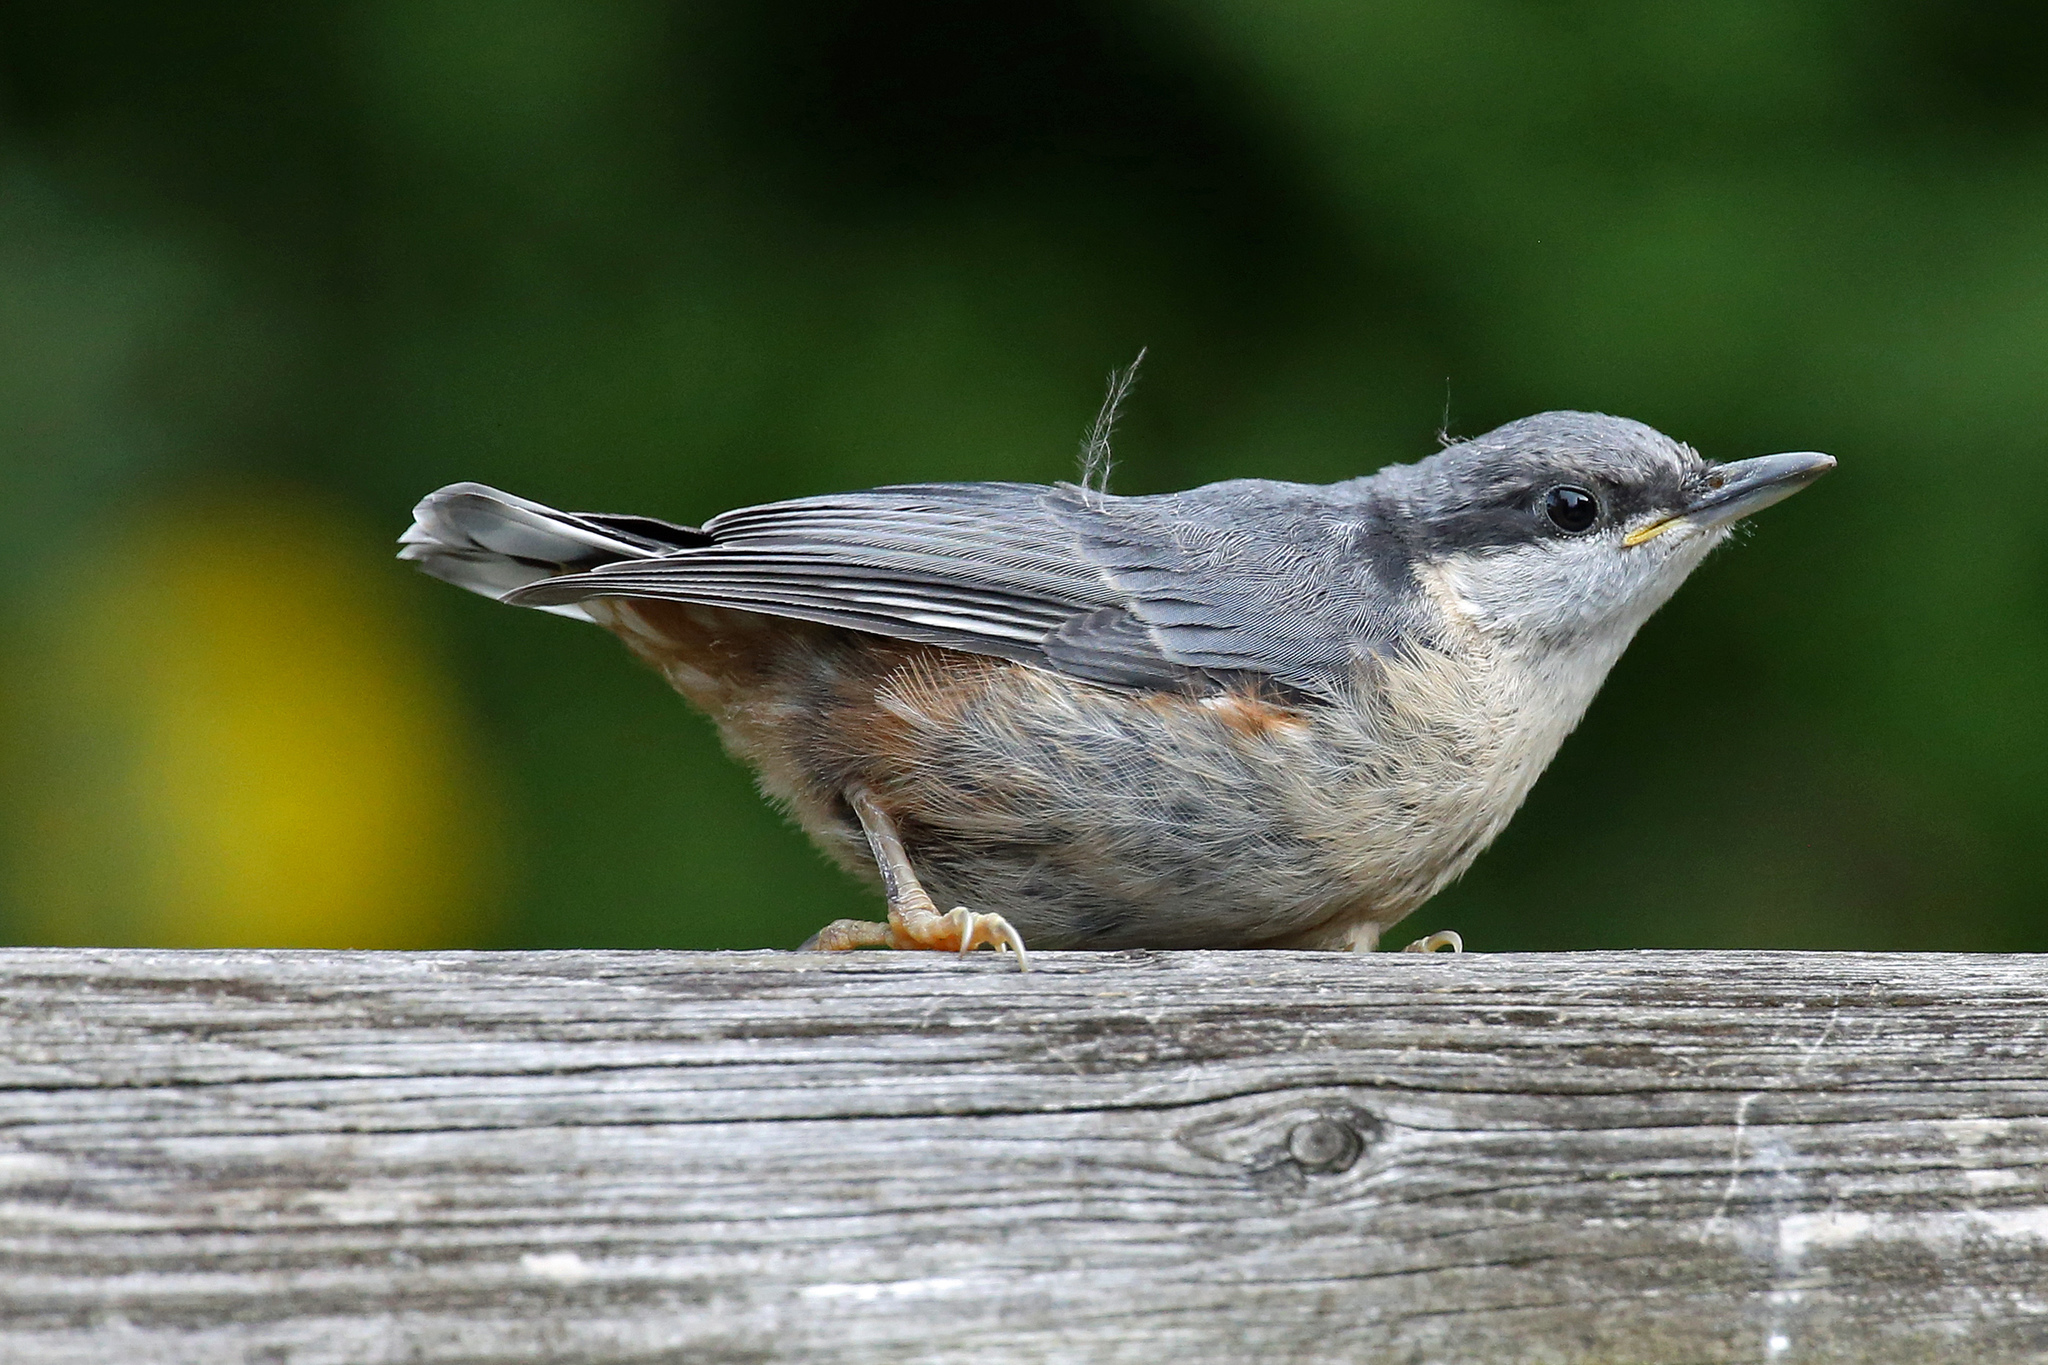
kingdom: Animalia
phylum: Chordata
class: Aves
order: Passeriformes
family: Sittidae
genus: Sitta
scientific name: Sitta europaea
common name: Eurasian nuthatch
